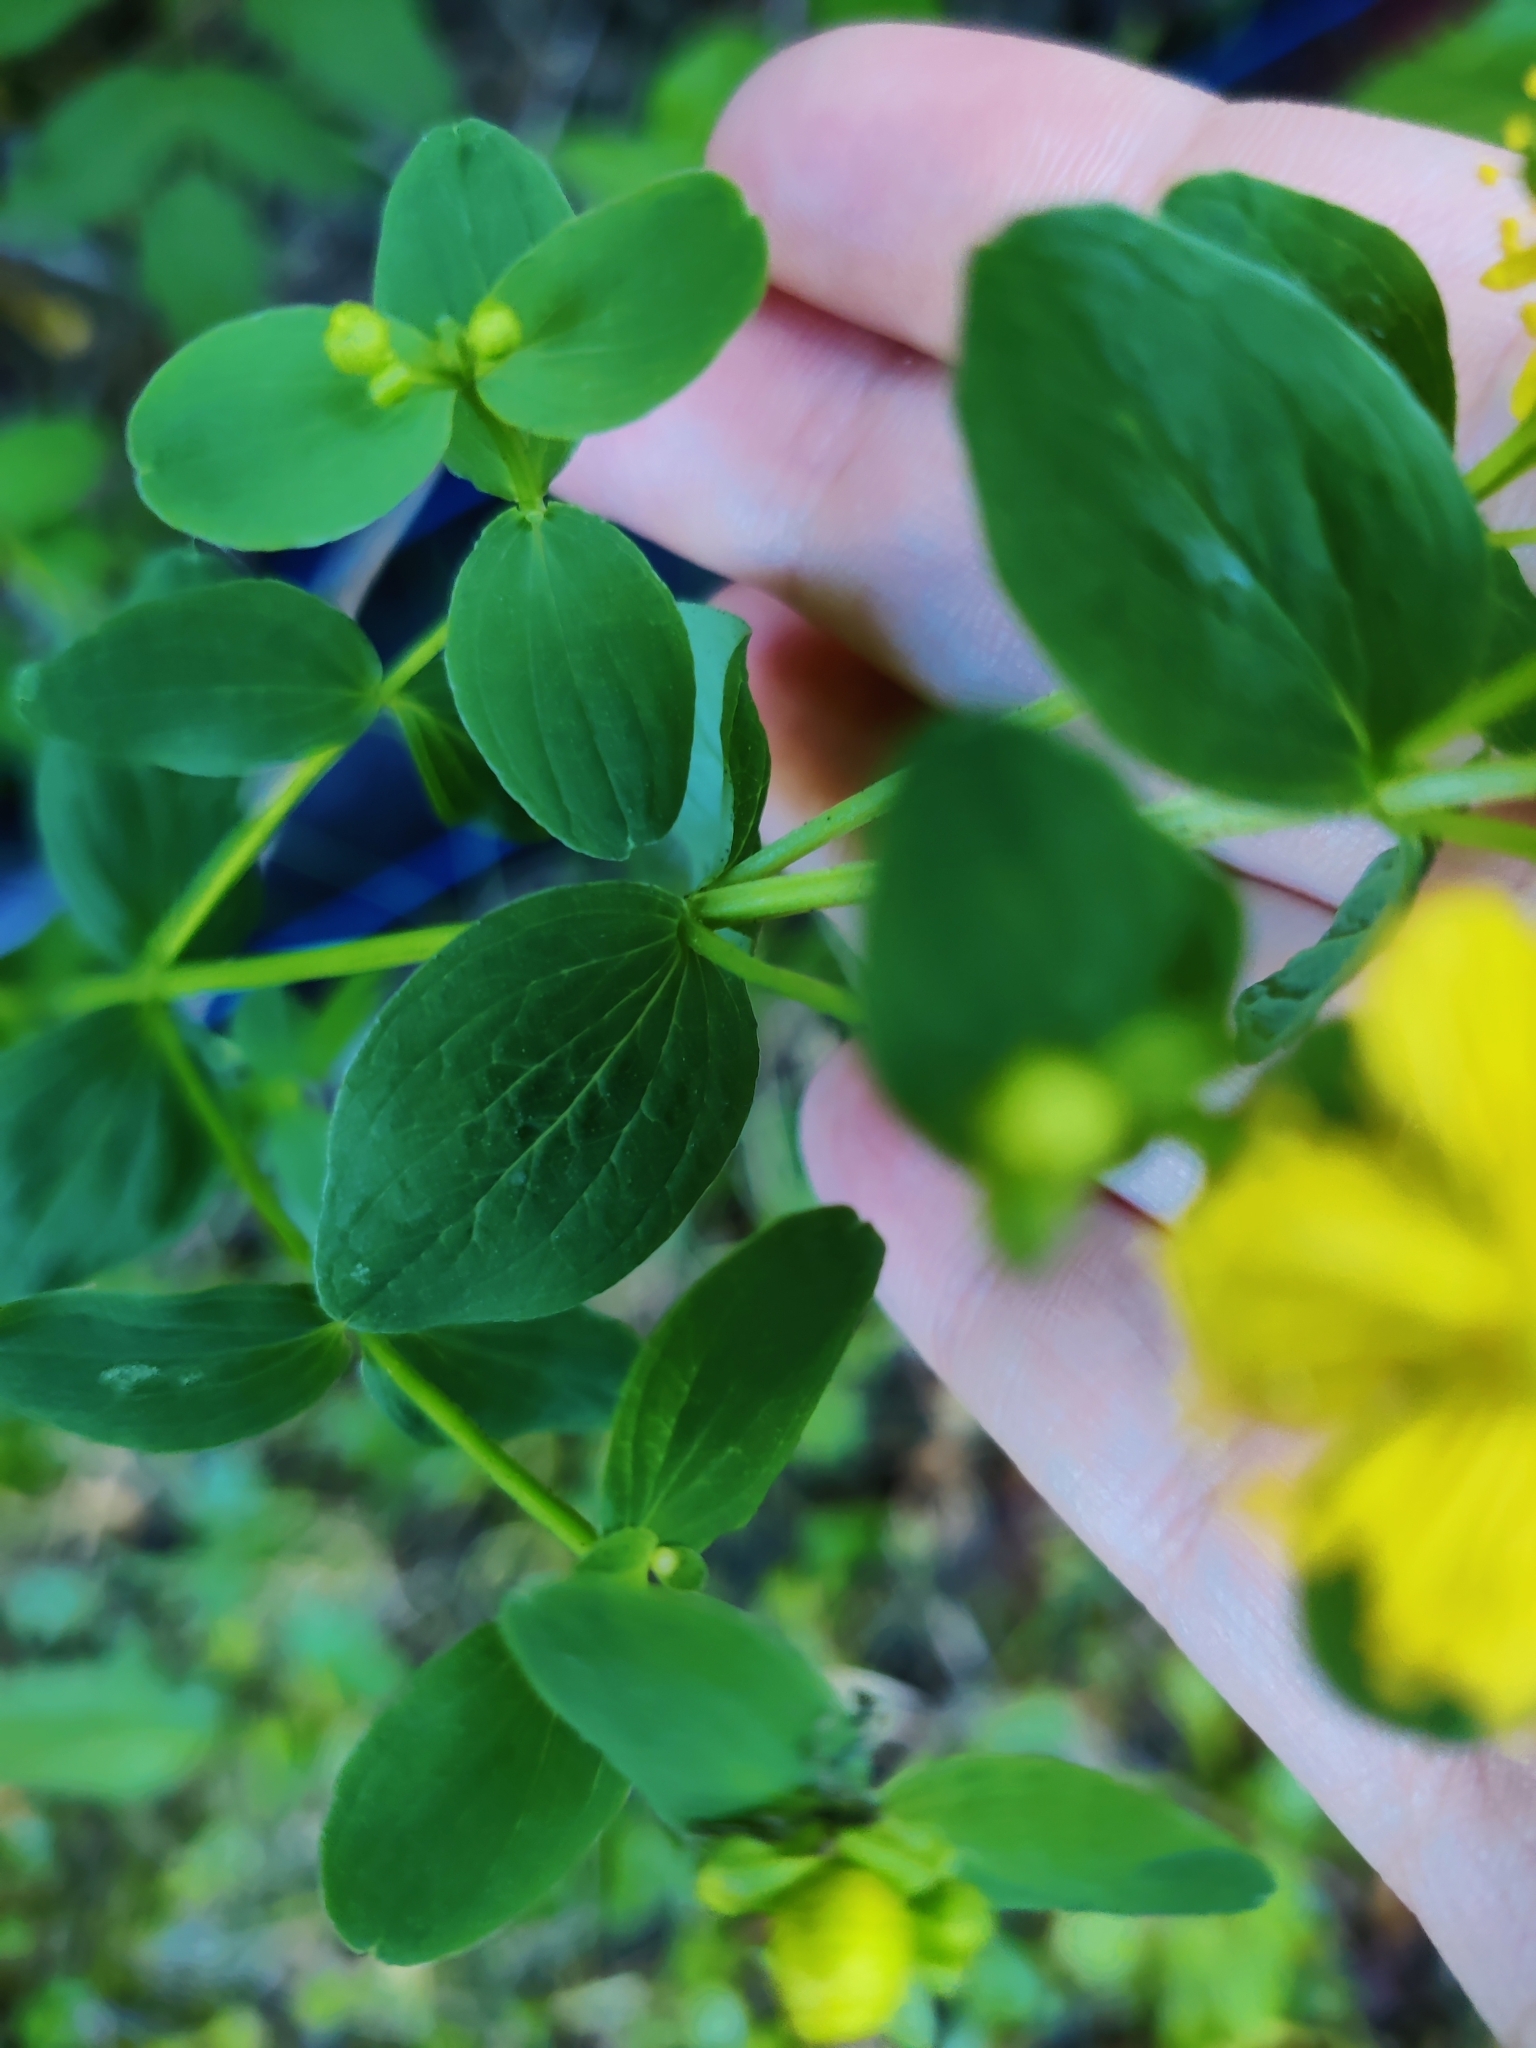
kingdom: Plantae
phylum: Tracheophyta
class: Magnoliopsida
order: Malpighiales
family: Hypericaceae
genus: Hypericum
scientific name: Hypericum maculatum
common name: Imperforate st. john's-wort
